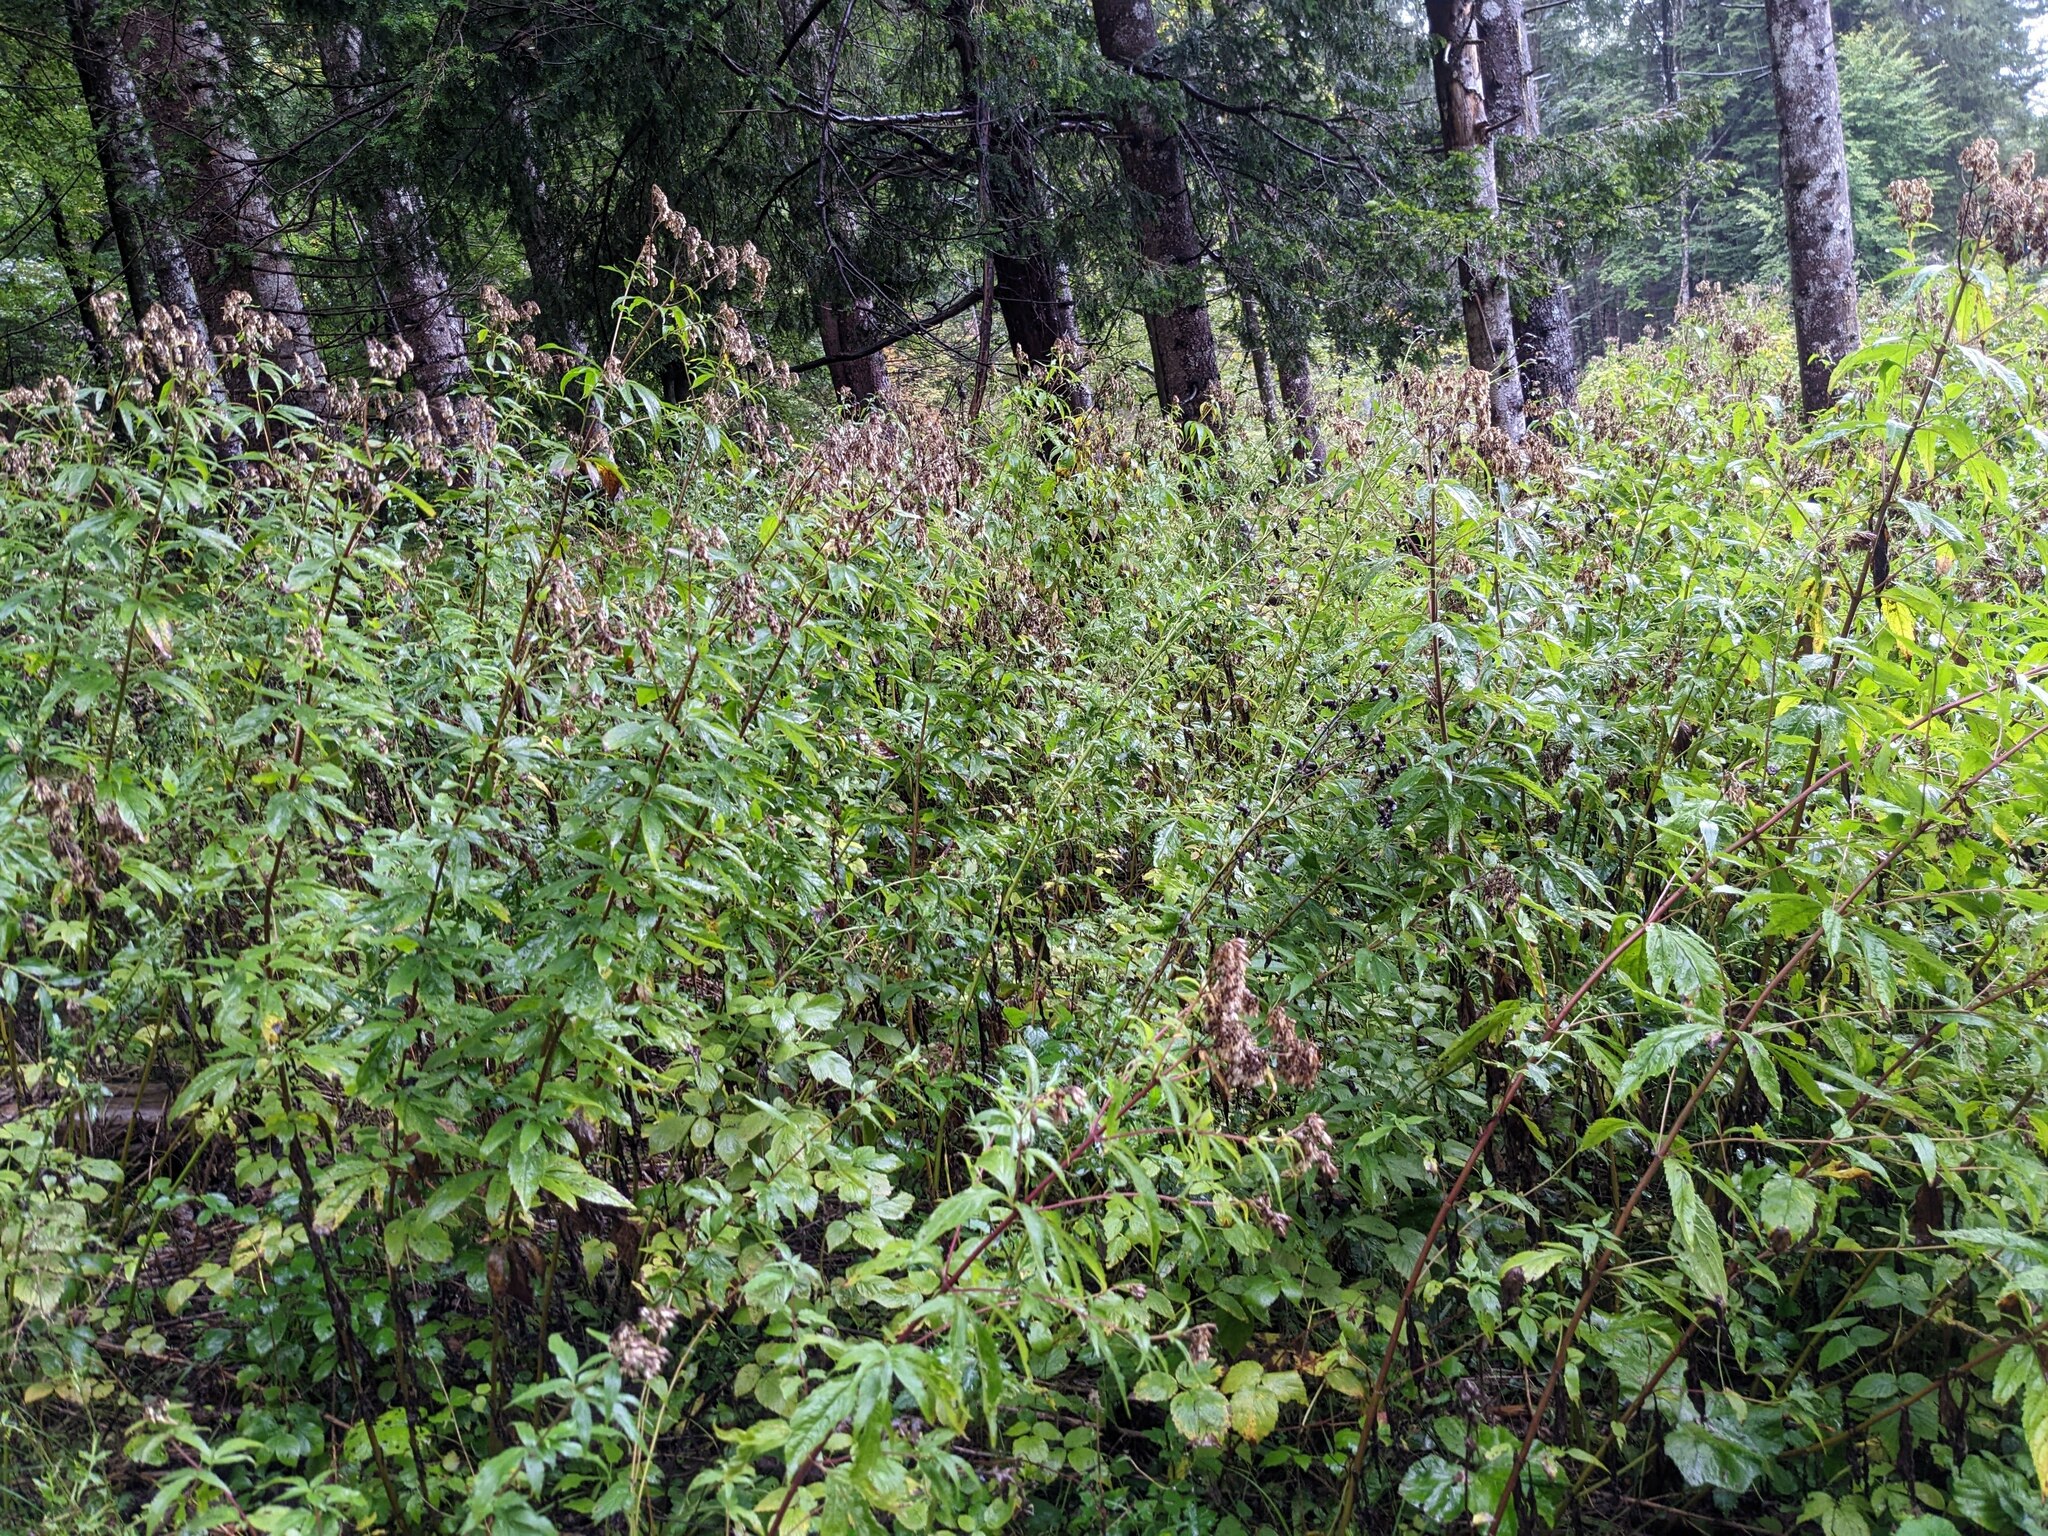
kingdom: Plantae
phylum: Tracheophyta
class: Magnoliopsida
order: Asterales
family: Asteraceae
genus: Eupatorium
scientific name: Eupatorium cannabinum
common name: Hemp-agrimony
